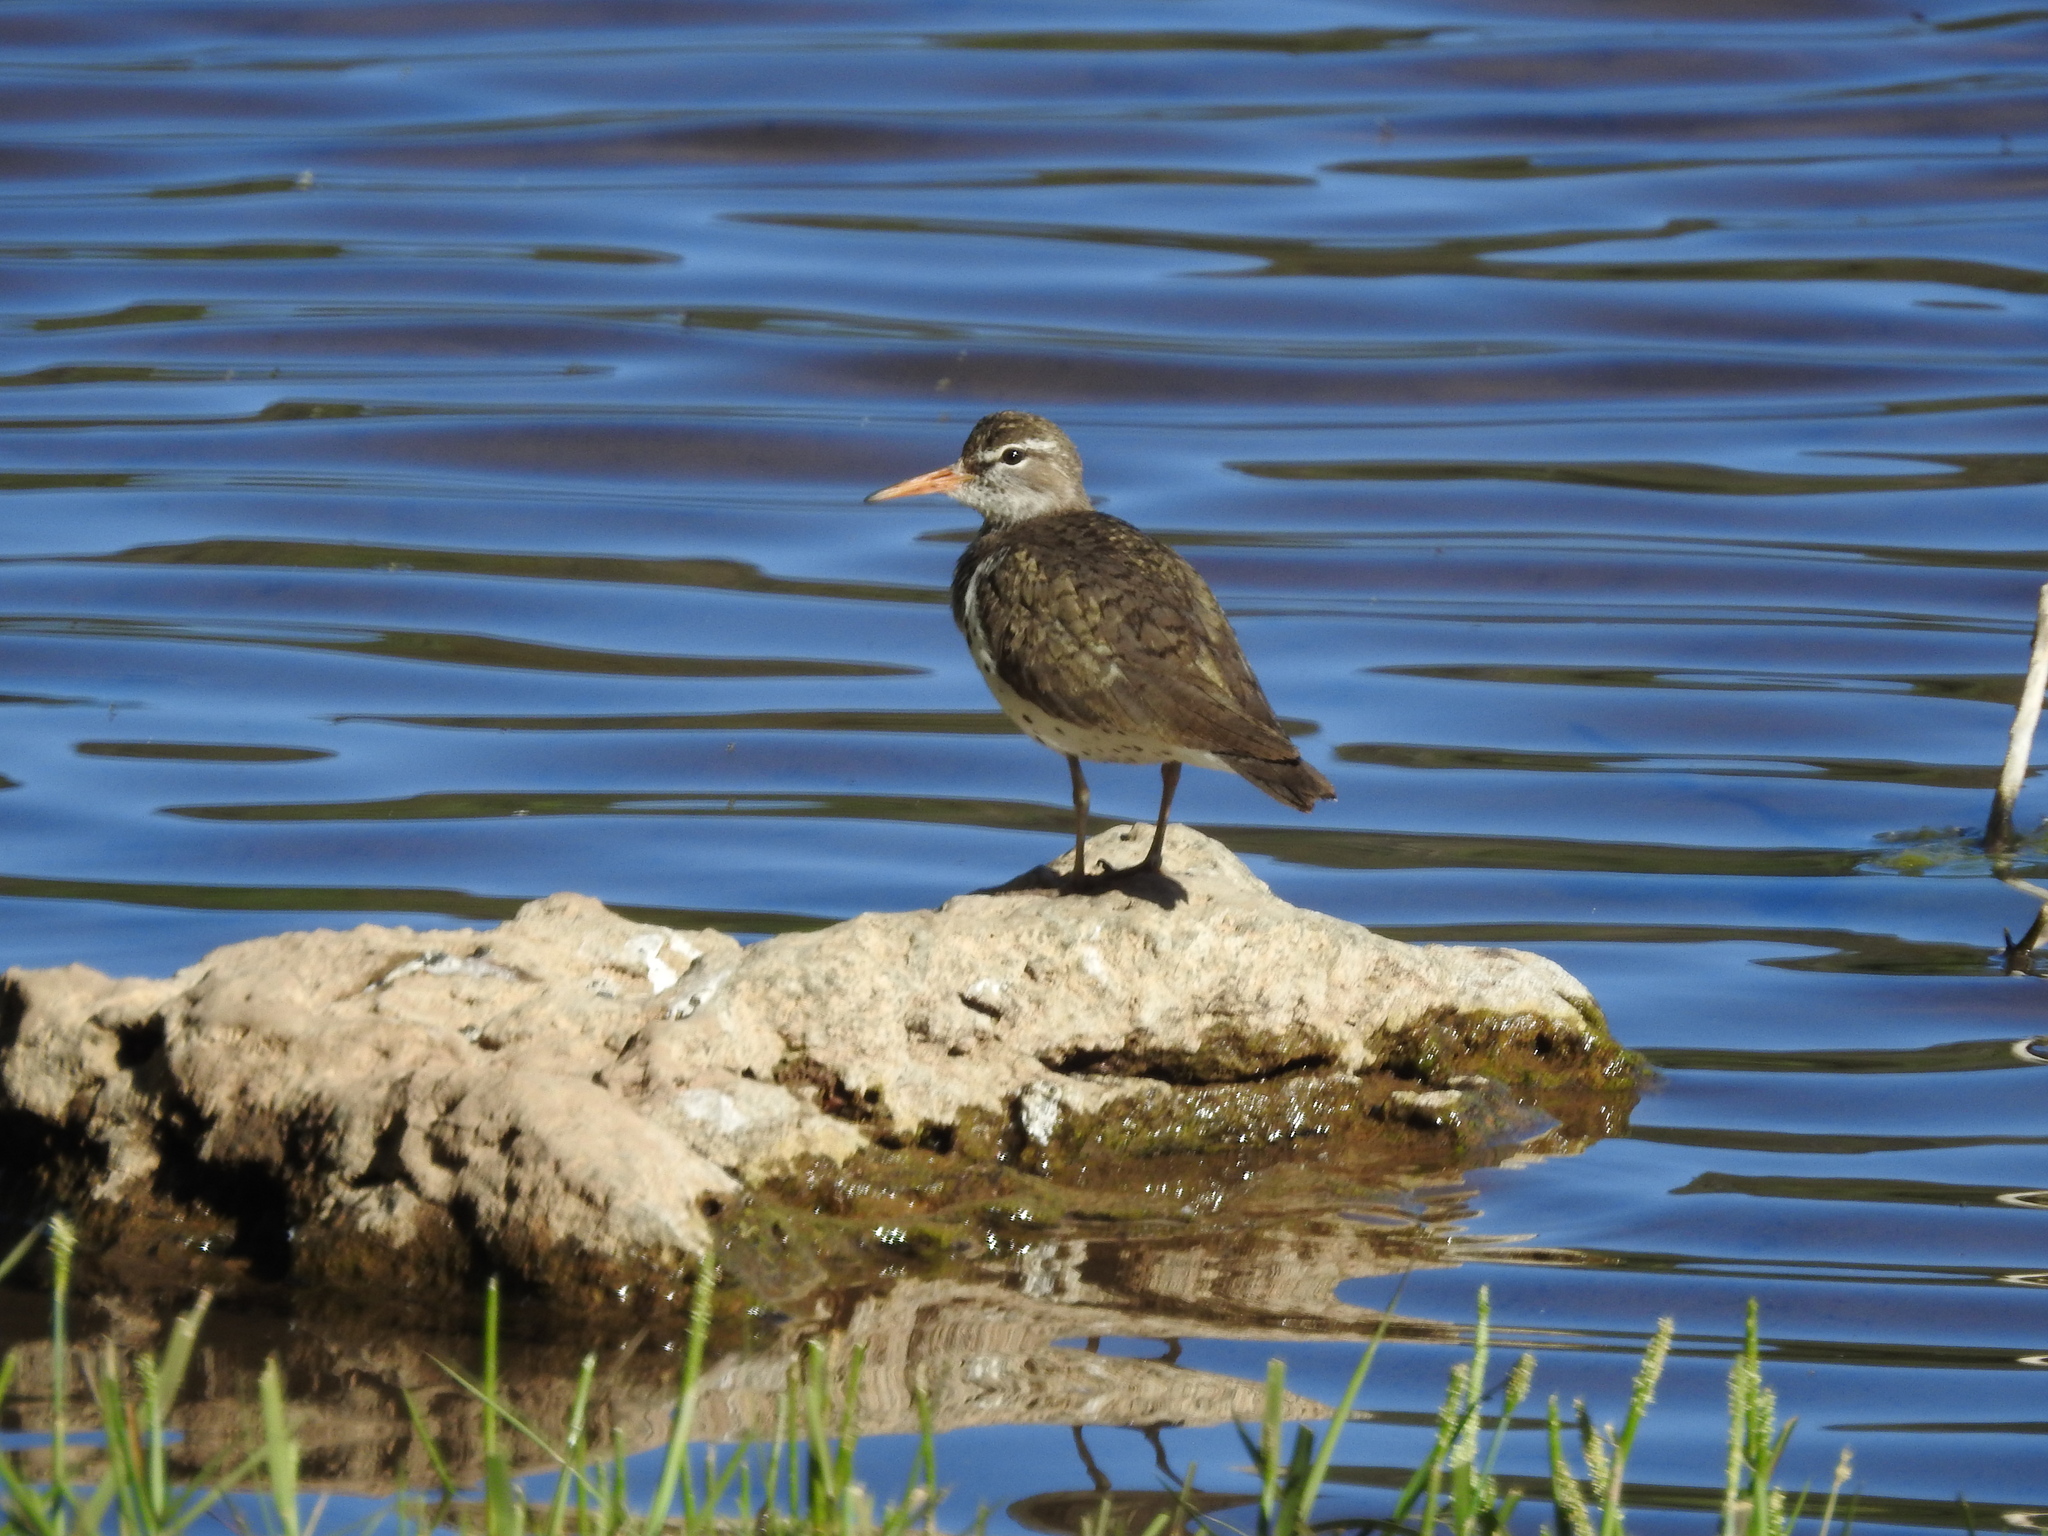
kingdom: Animalia
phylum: Chordata
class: Aves
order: Charadriiformes
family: Scolopacidae
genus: Actitis
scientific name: Actitis macularius
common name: Spotted sandpiper
